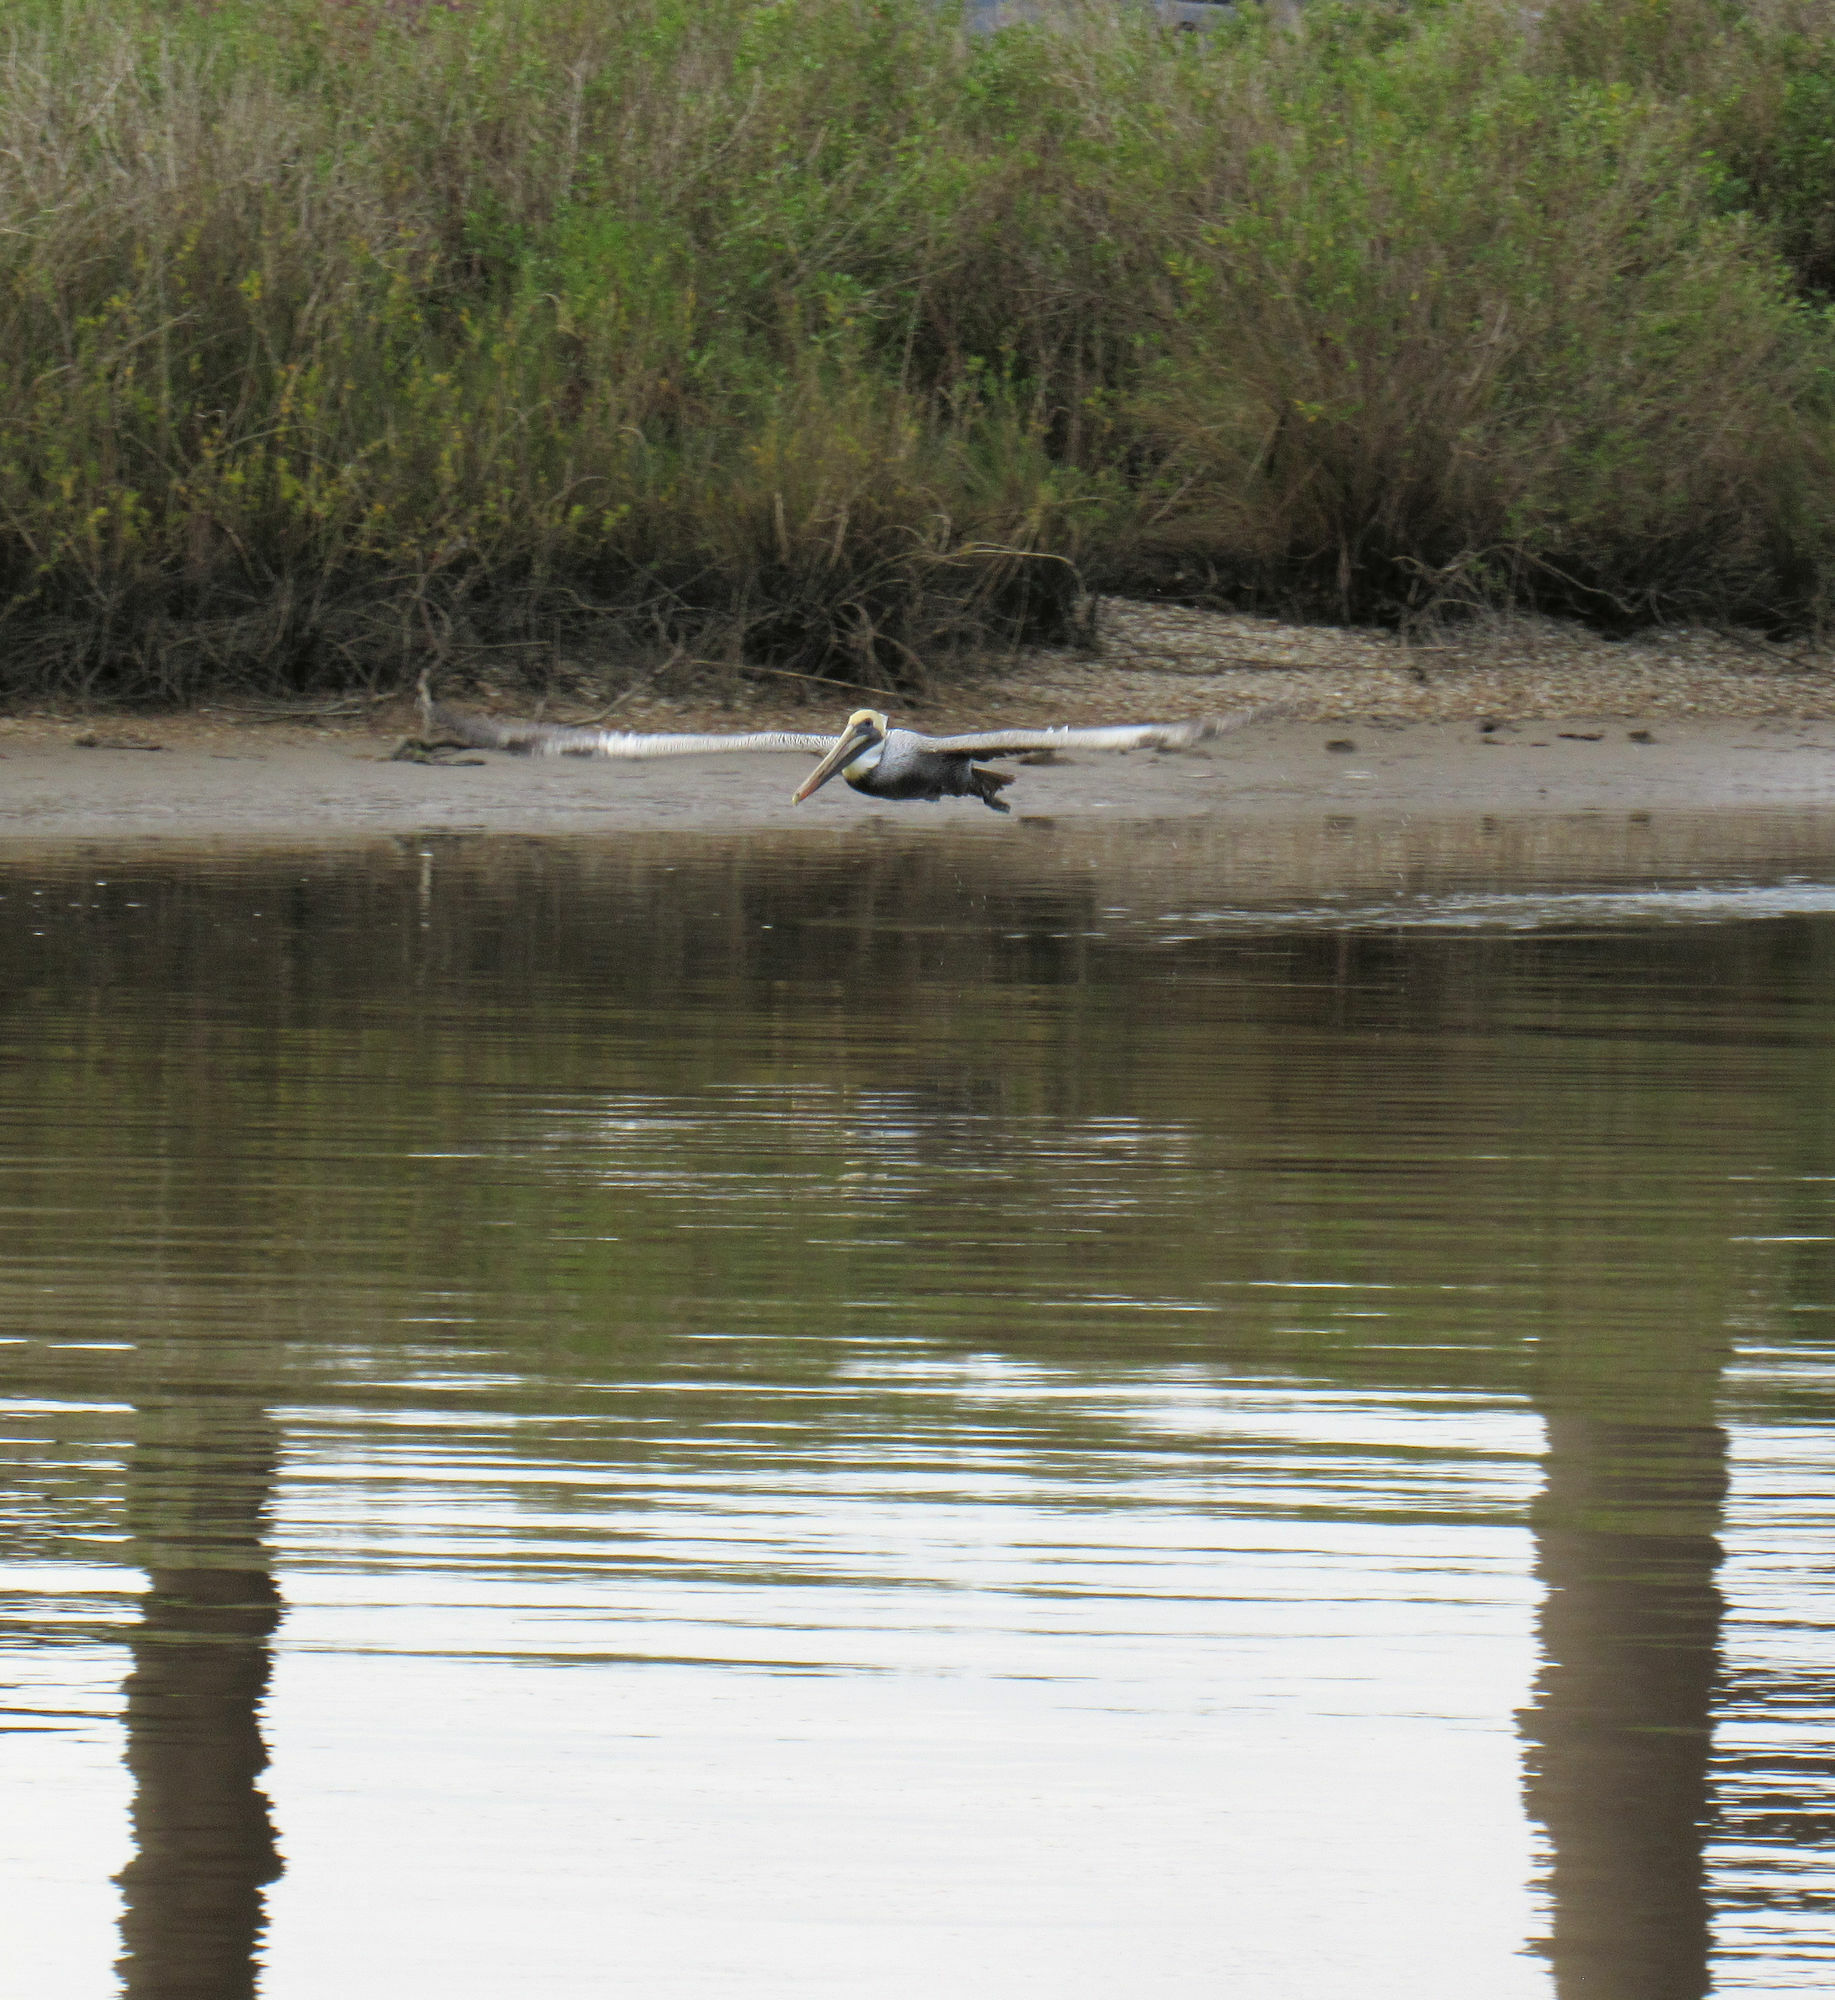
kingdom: Animalia
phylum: Chordata
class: Aves
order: Pelecaniformes
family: Pelecanidae
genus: Pelecanus
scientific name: Pelecanus occidentalis
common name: Brown pelican
